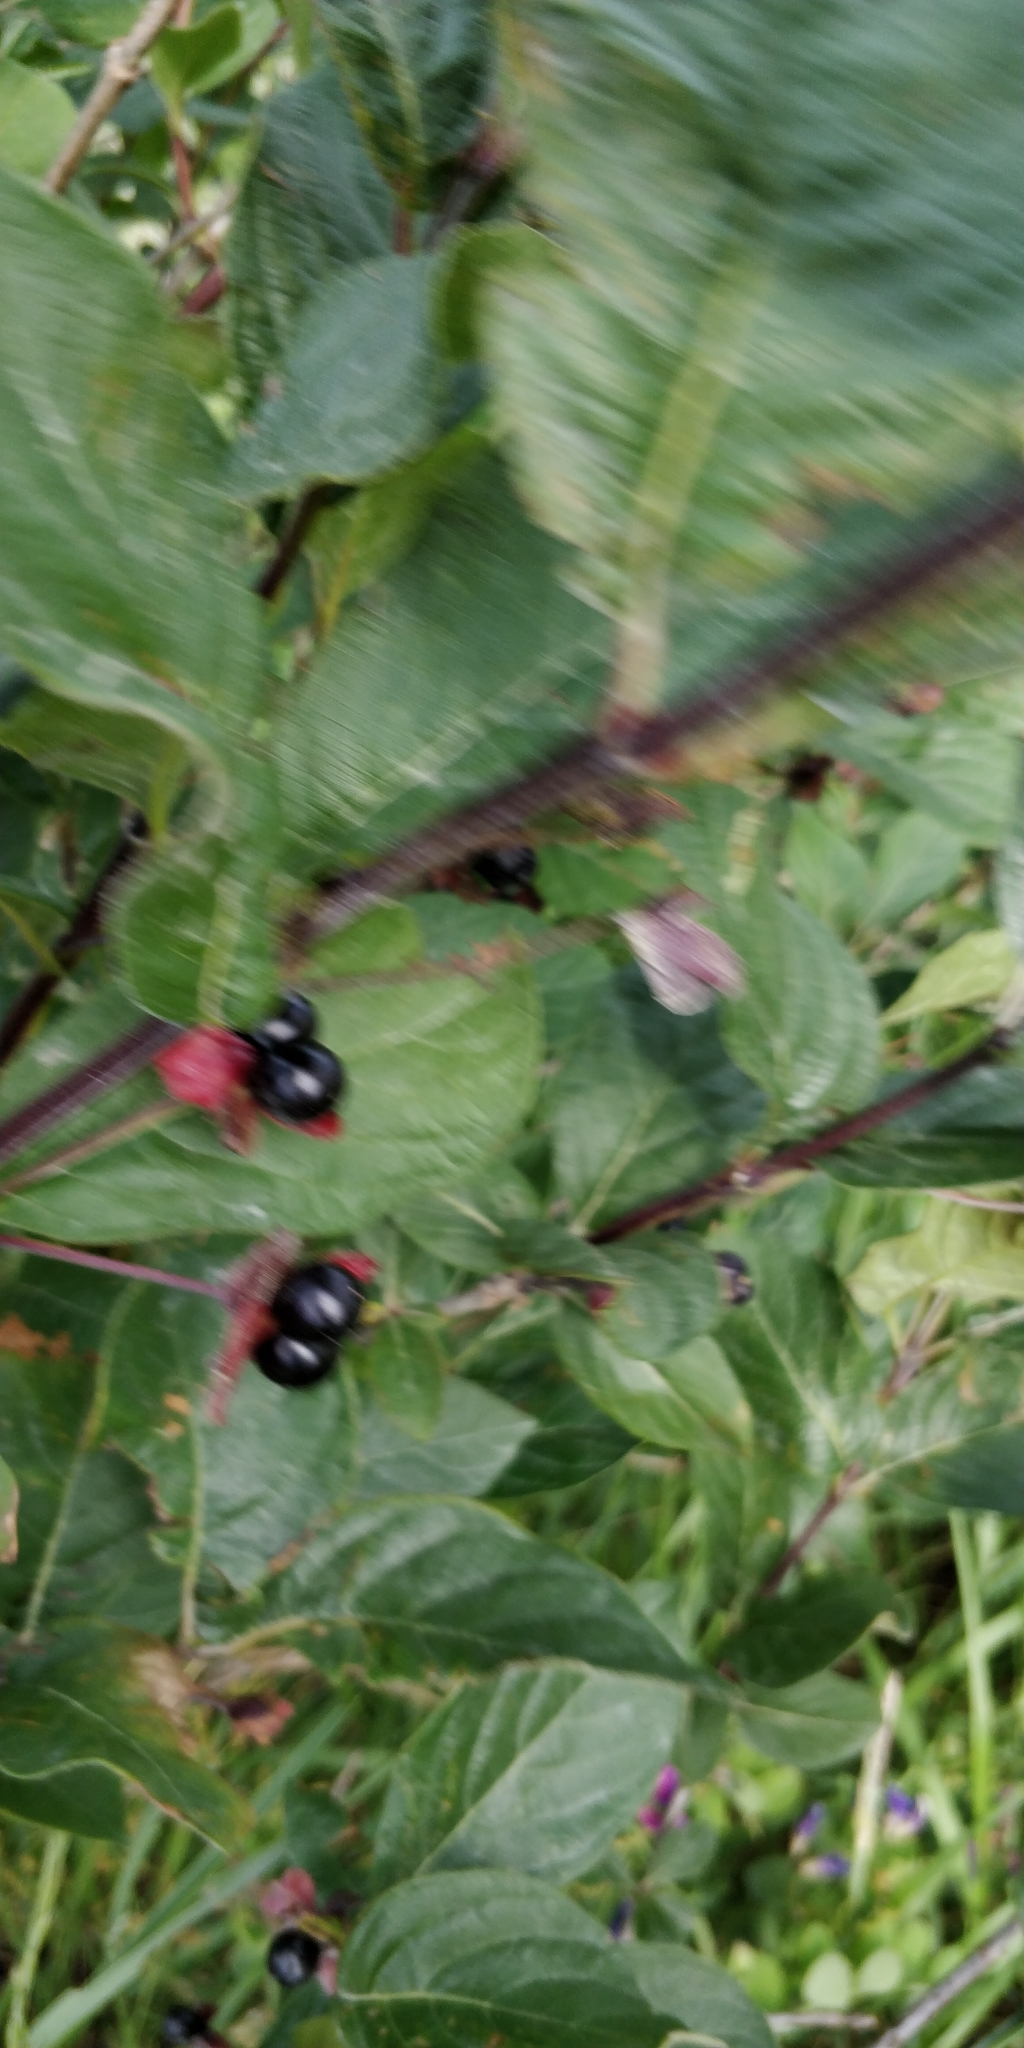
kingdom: Plantae
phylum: Tracheophyta
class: Magnoliopsida
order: Dipsacales
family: Caprifoliaceae
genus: Lonicera
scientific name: Lonicera involucrata
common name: Californian honeysuckle
